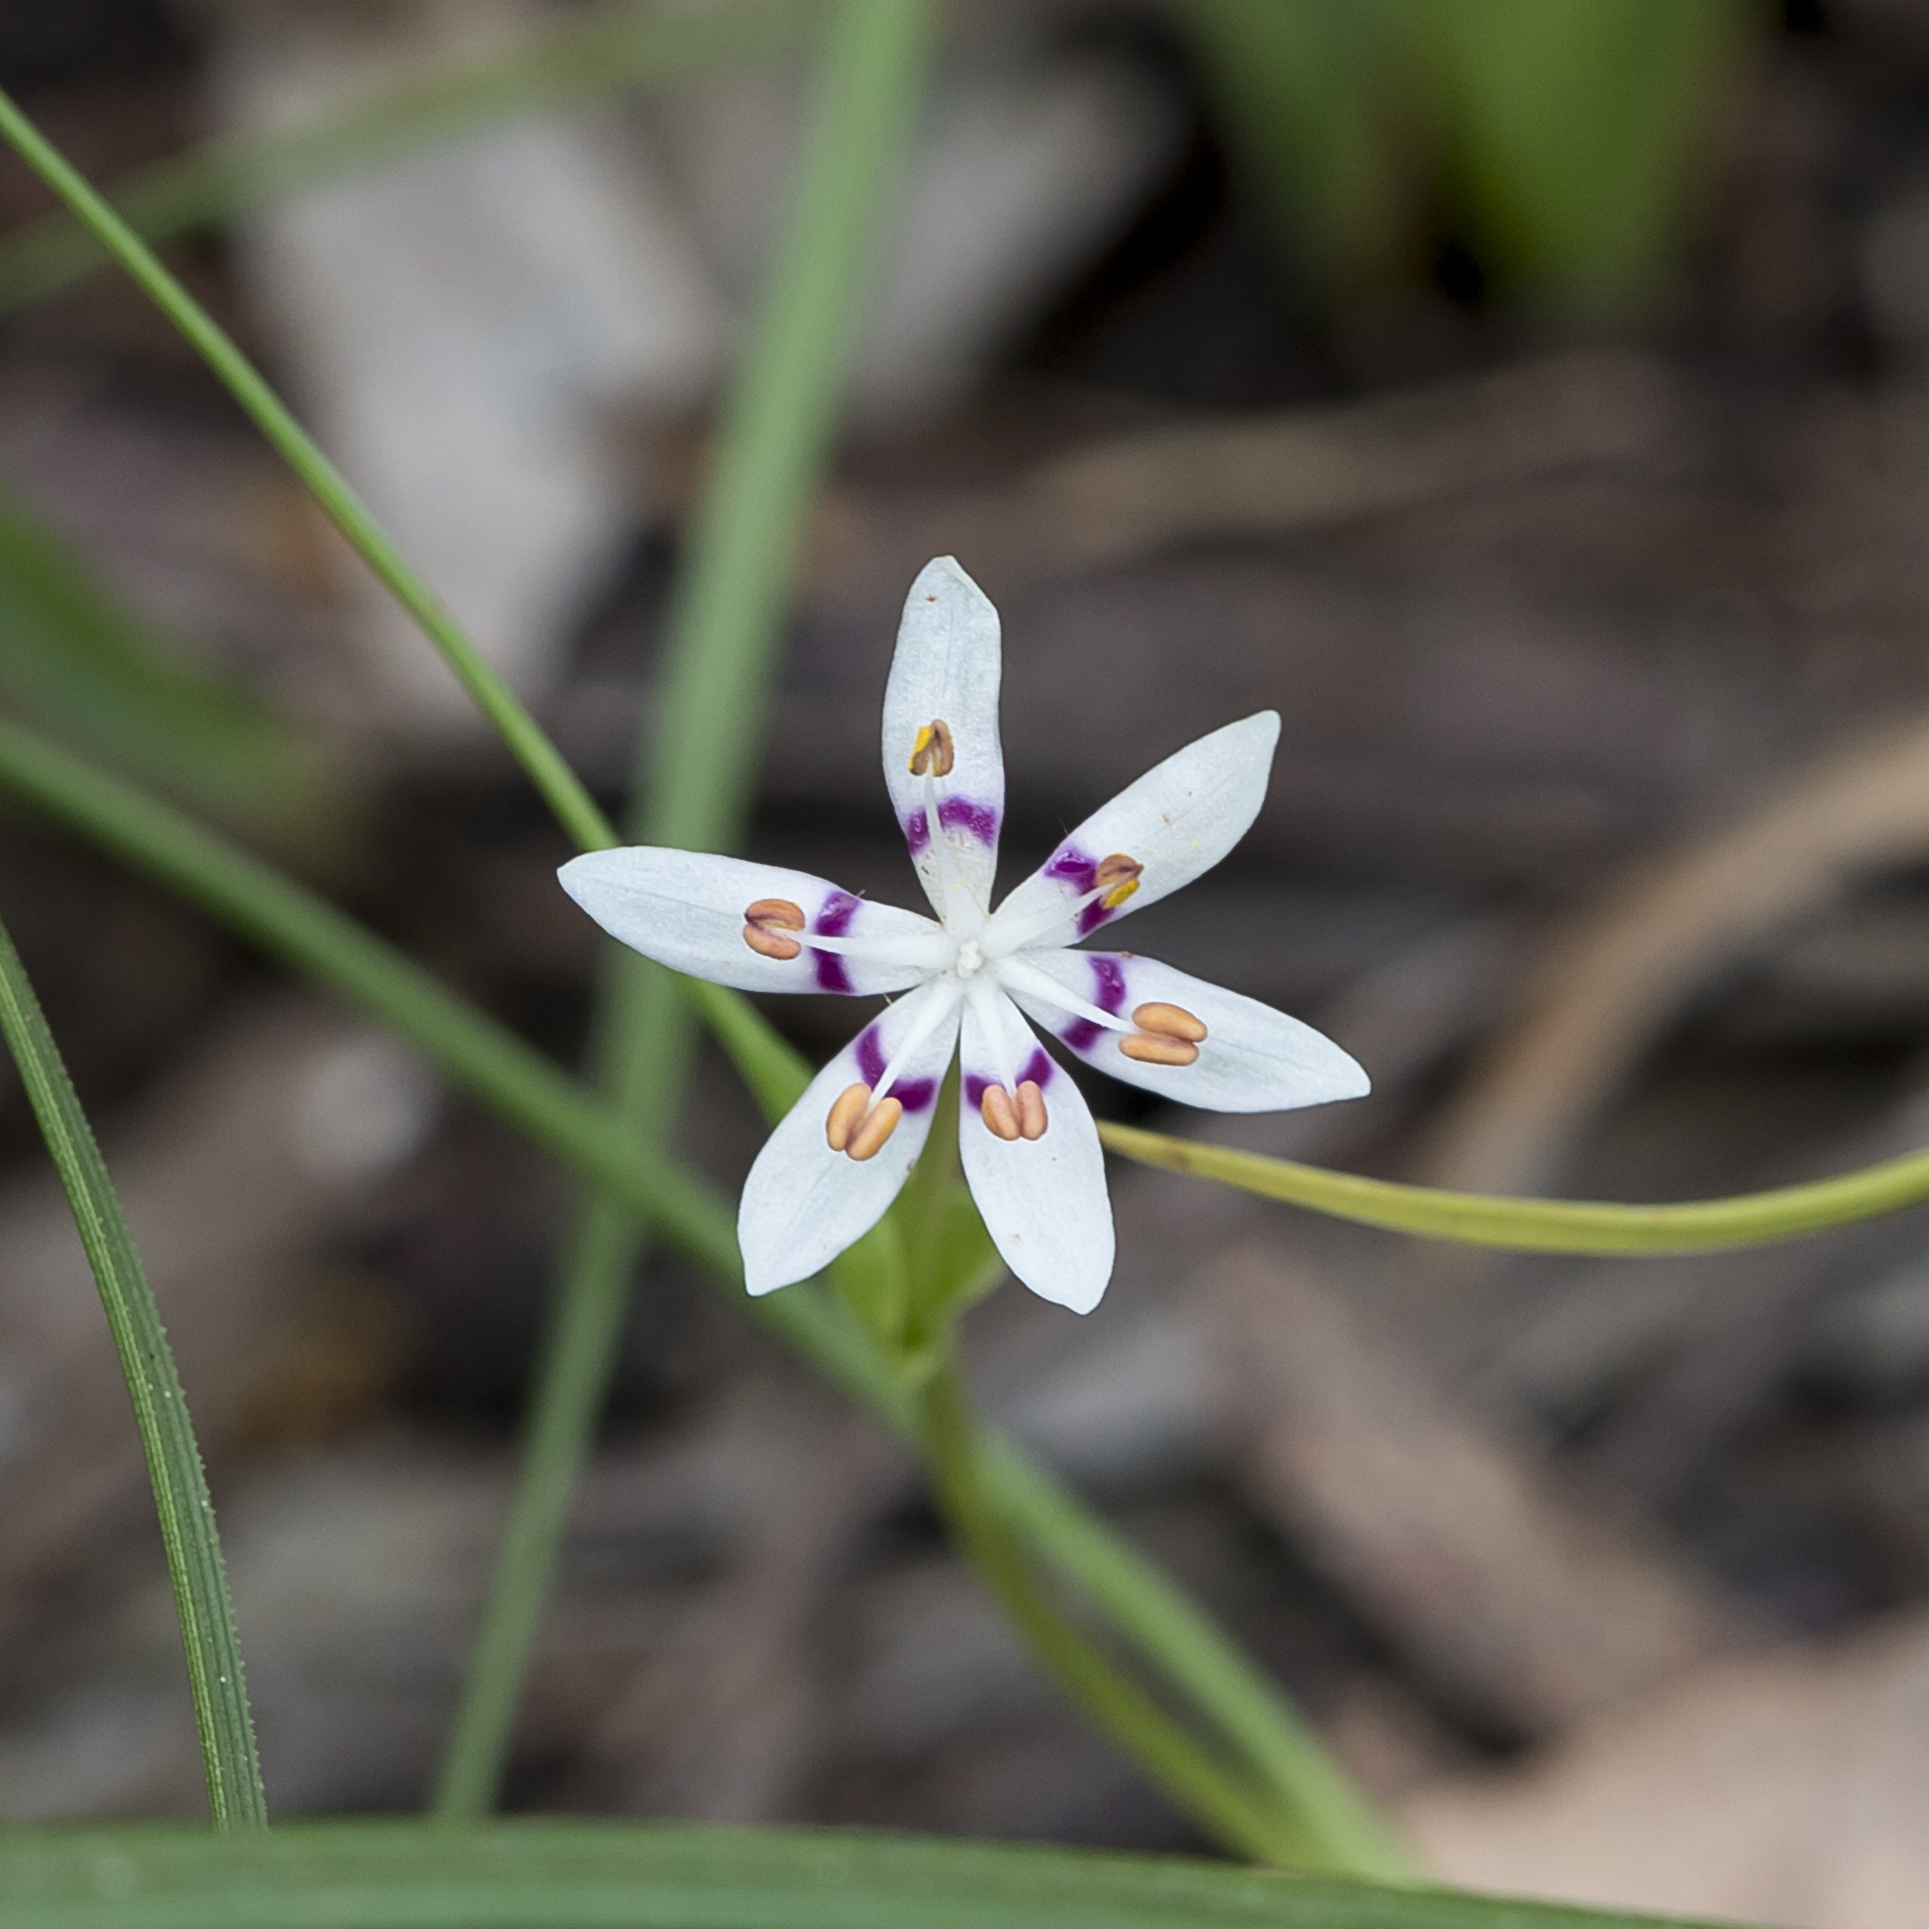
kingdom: Plantae
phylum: Tracheophyta
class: Liliopsida
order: Liliales
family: Colchicaceae
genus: Wurmbea
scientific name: Wurmbea dioica
